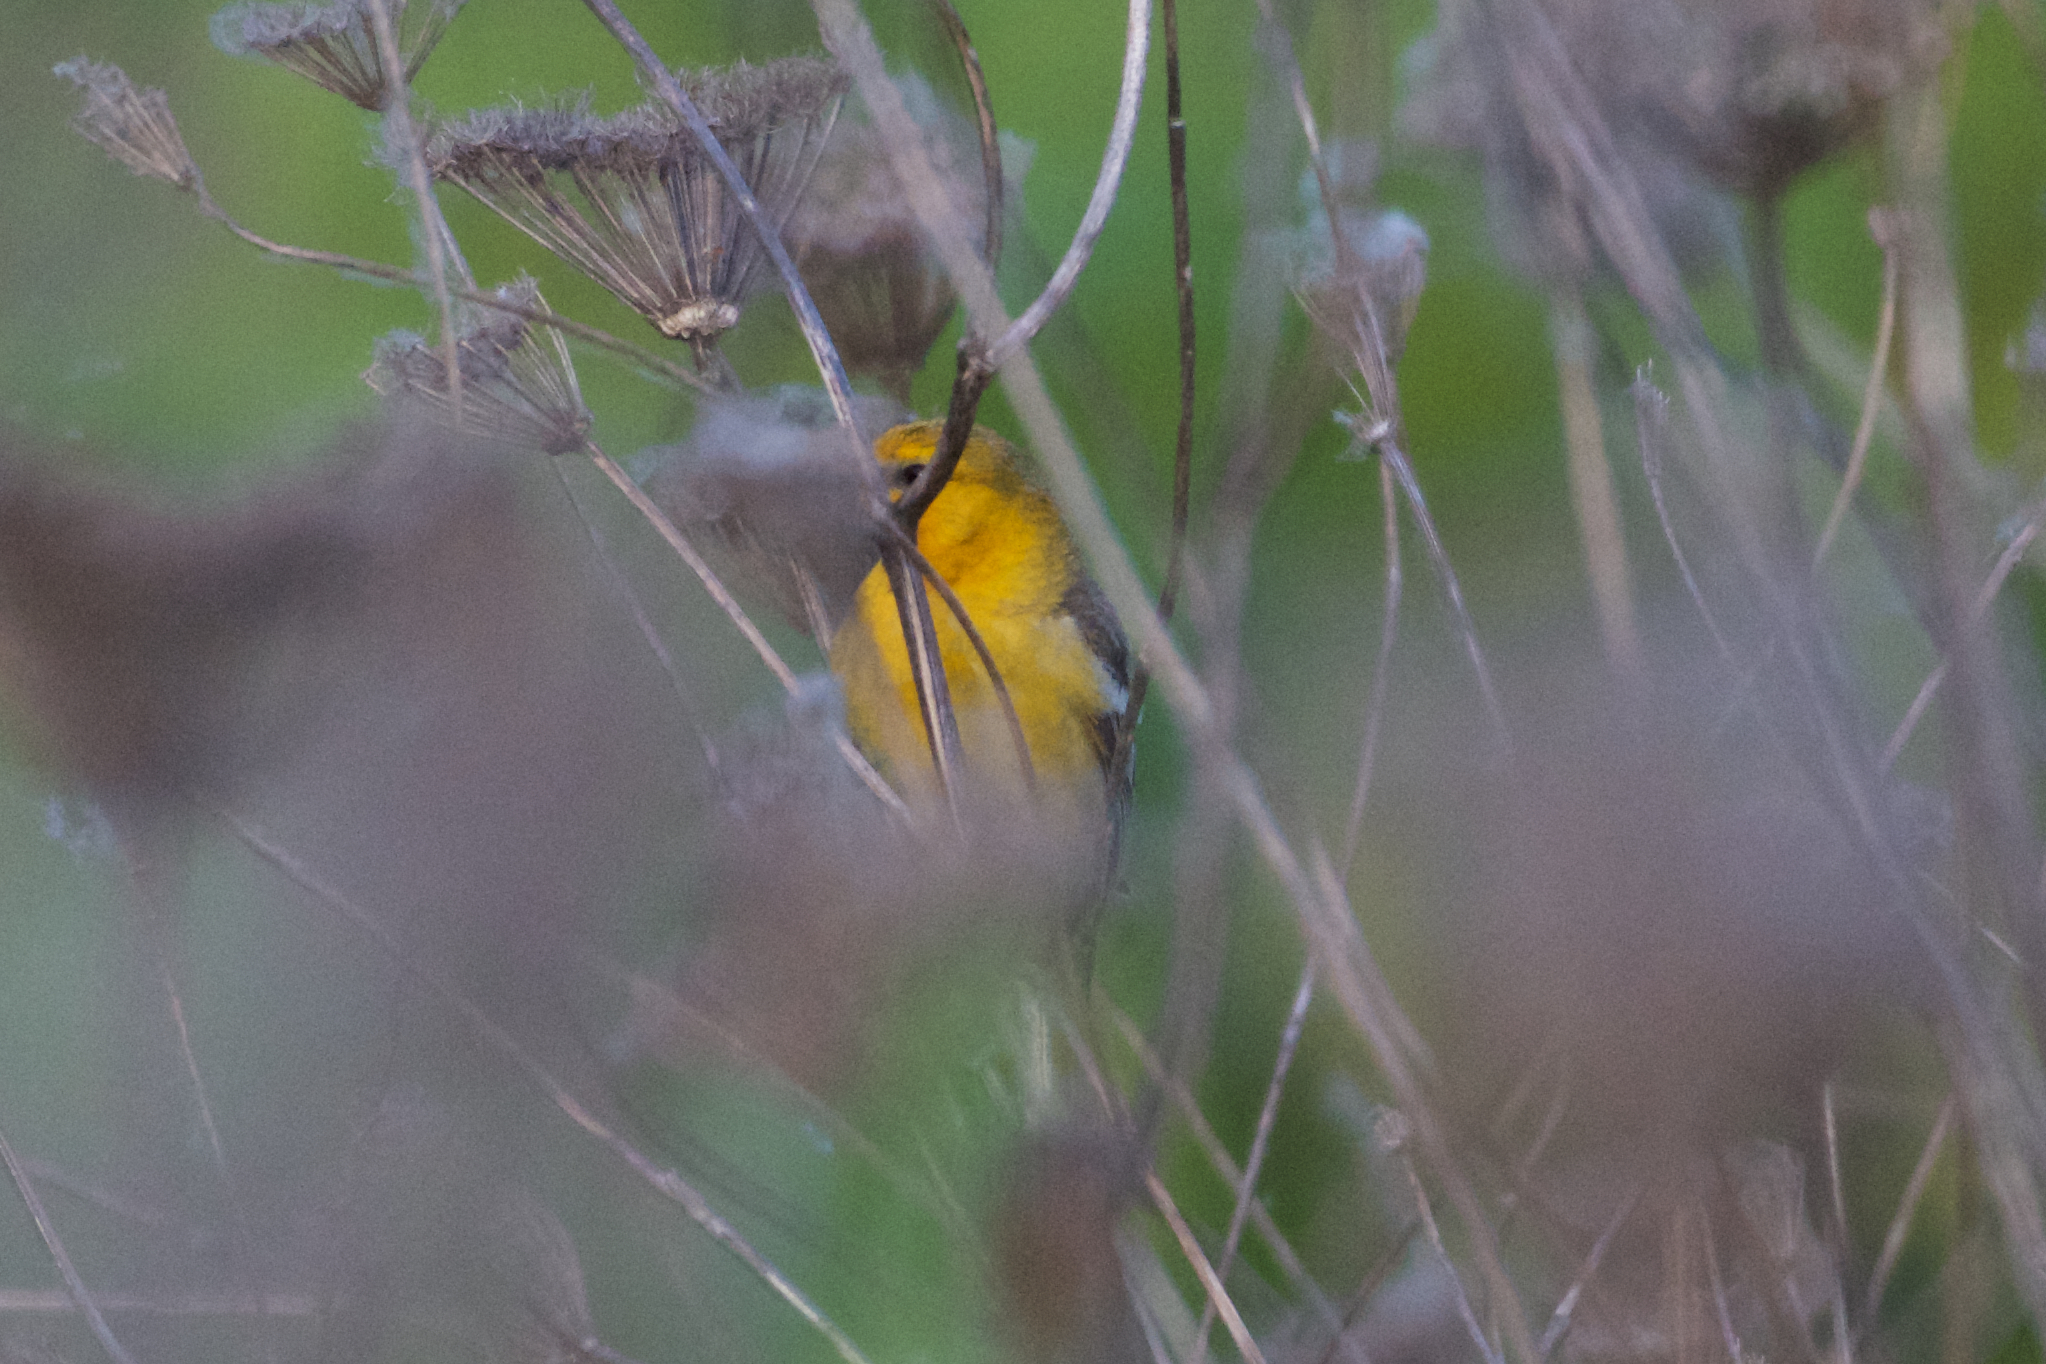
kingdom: Animalia
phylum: Chordata
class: Aves
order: Passeriformes
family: Icteridae
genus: Icterus
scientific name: Icterus bullockii
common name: Bullock's oriole
